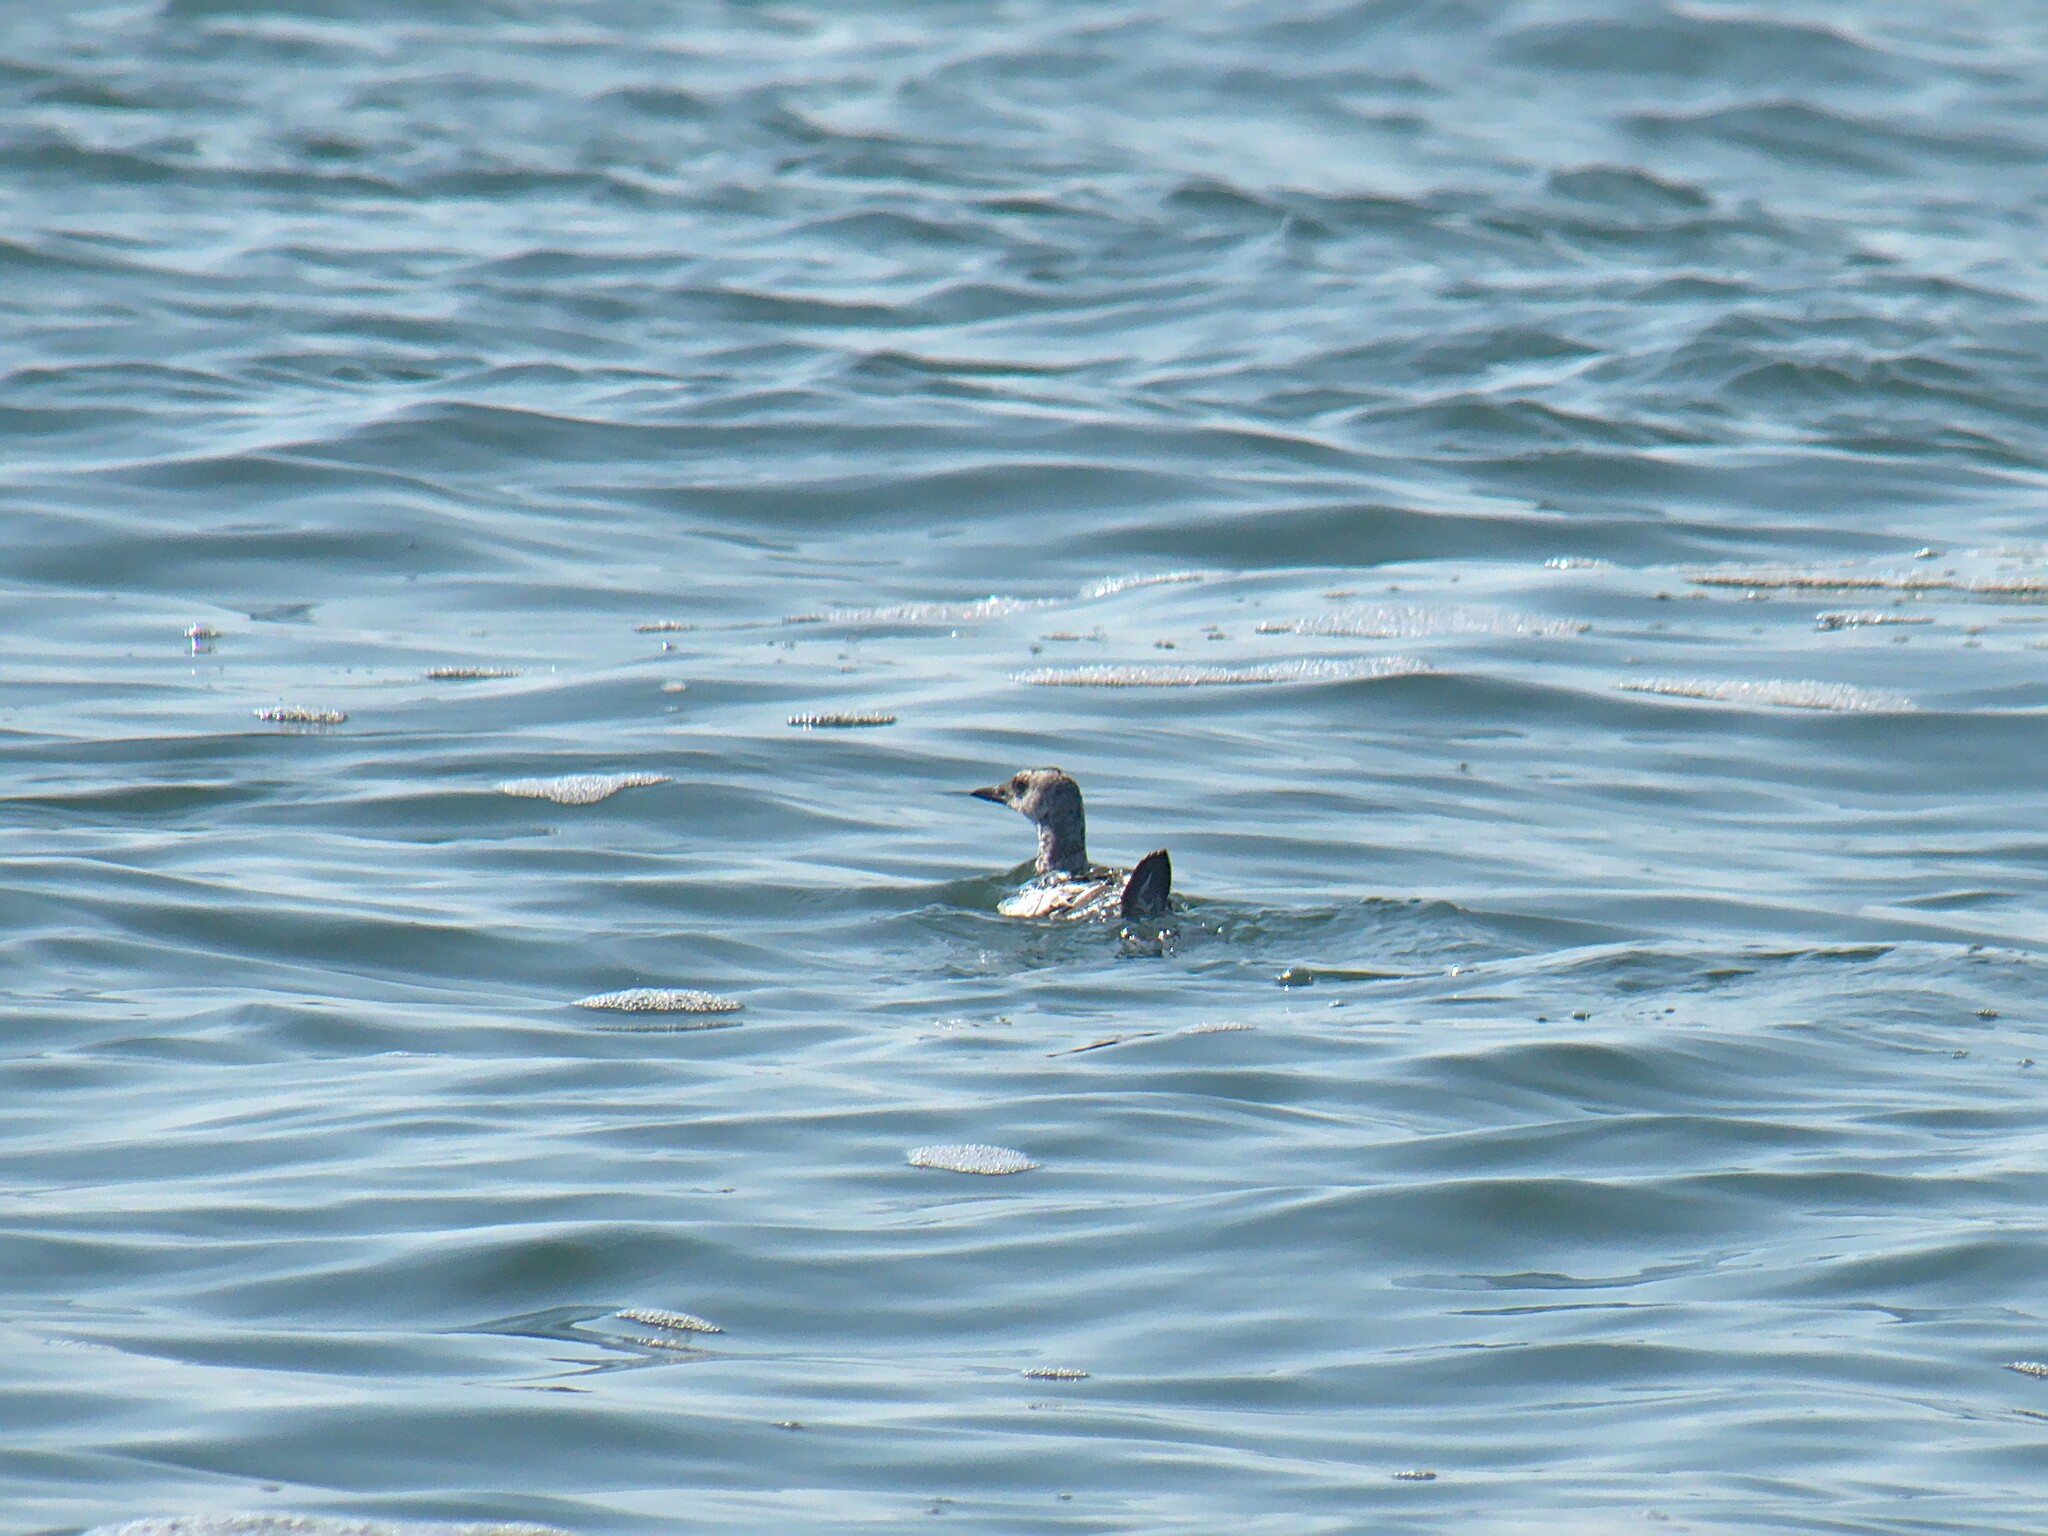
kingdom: Animalia
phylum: Chordata
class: Aves
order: Charadriiformes
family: Alcidae
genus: Cepphus
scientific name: Cepphus grylle
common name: Black guillemot
